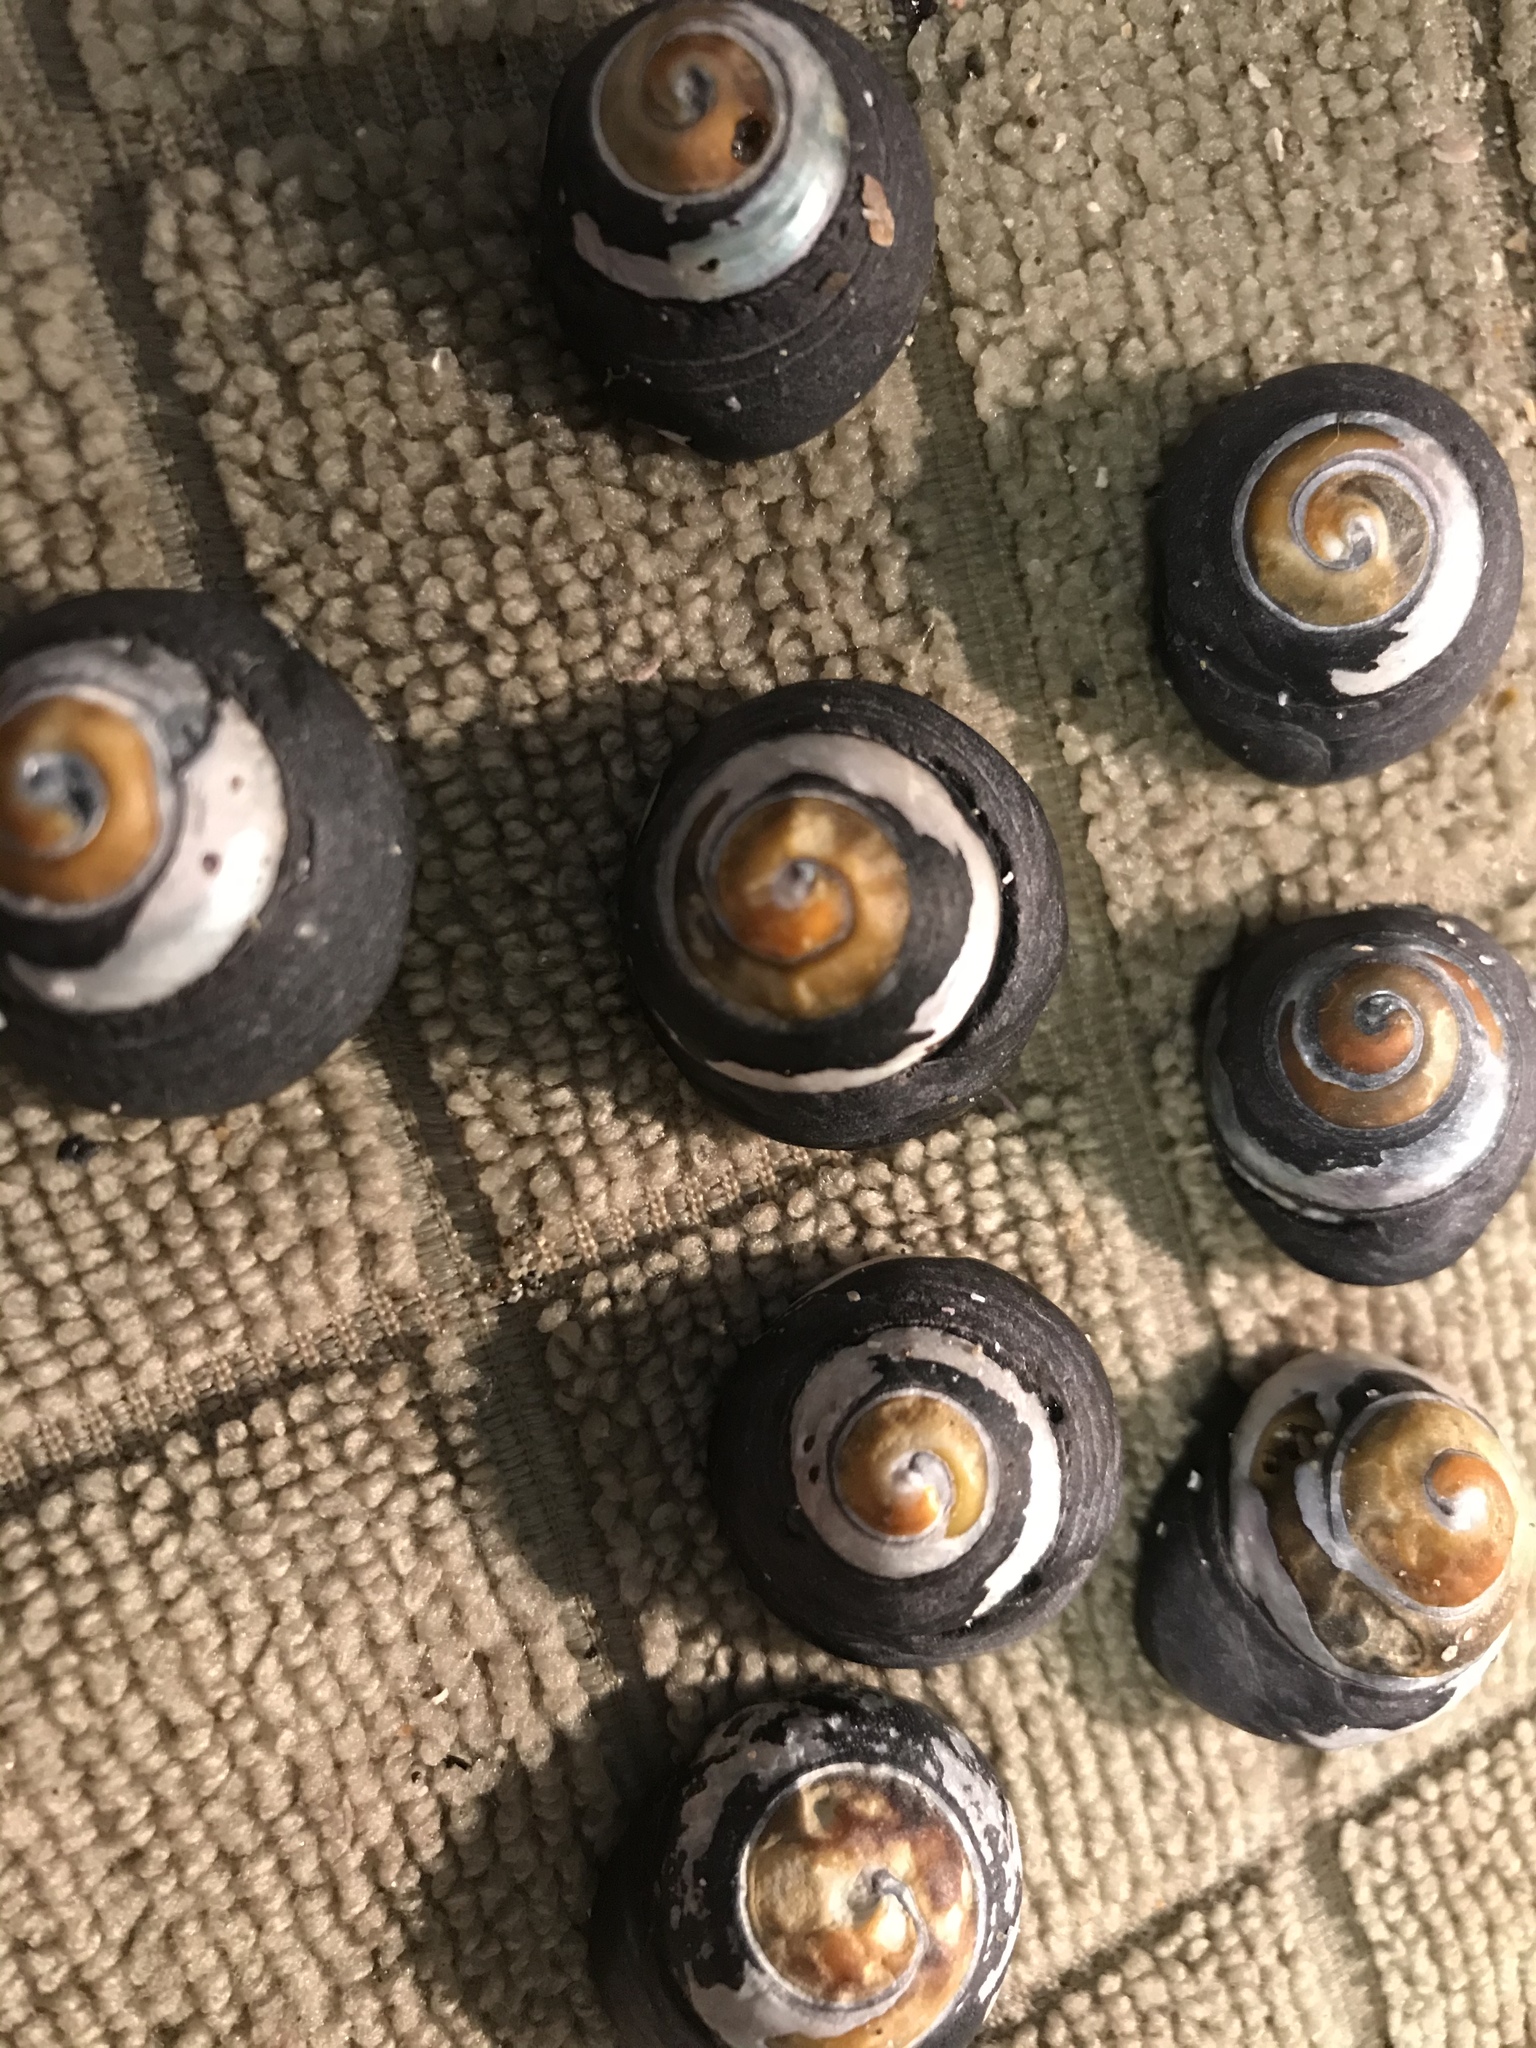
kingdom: Animalia
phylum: Mollusca
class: Gastropoda
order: Trochida
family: Tegulidae
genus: Tegula
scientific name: Tegula funebralis
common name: Black tegula
